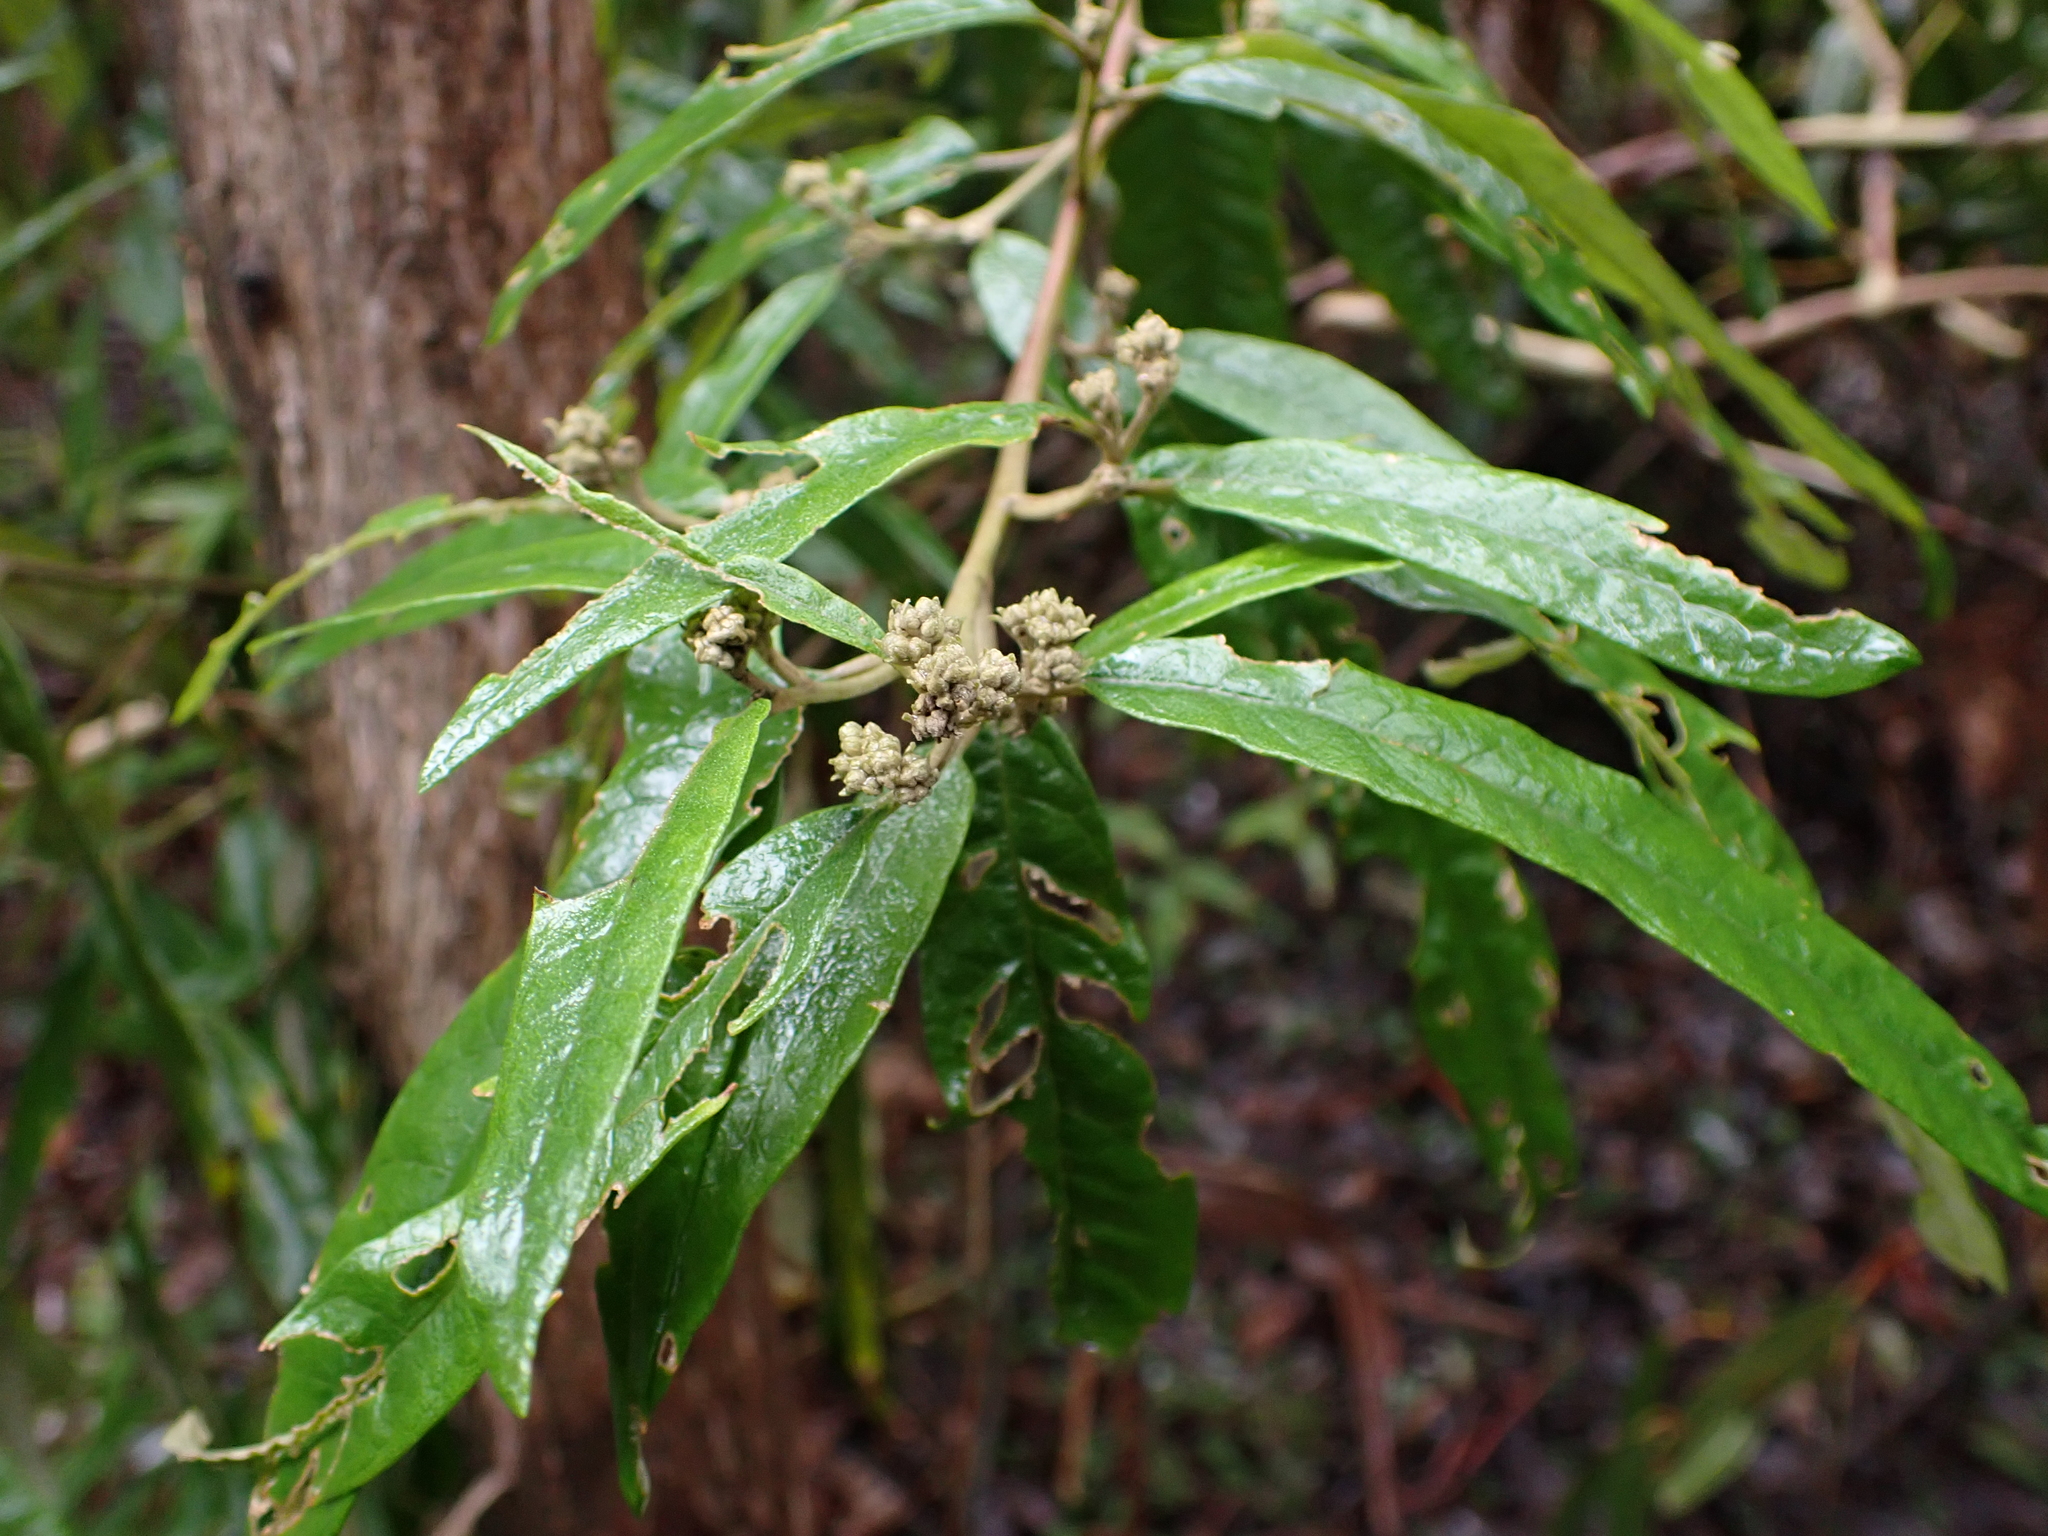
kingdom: Plantae
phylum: Tracheophyta
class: Magnoliopsida
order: Asterales
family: Asteraceae
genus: Olearia
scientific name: Olearia lirata
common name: Dusty daisybush
